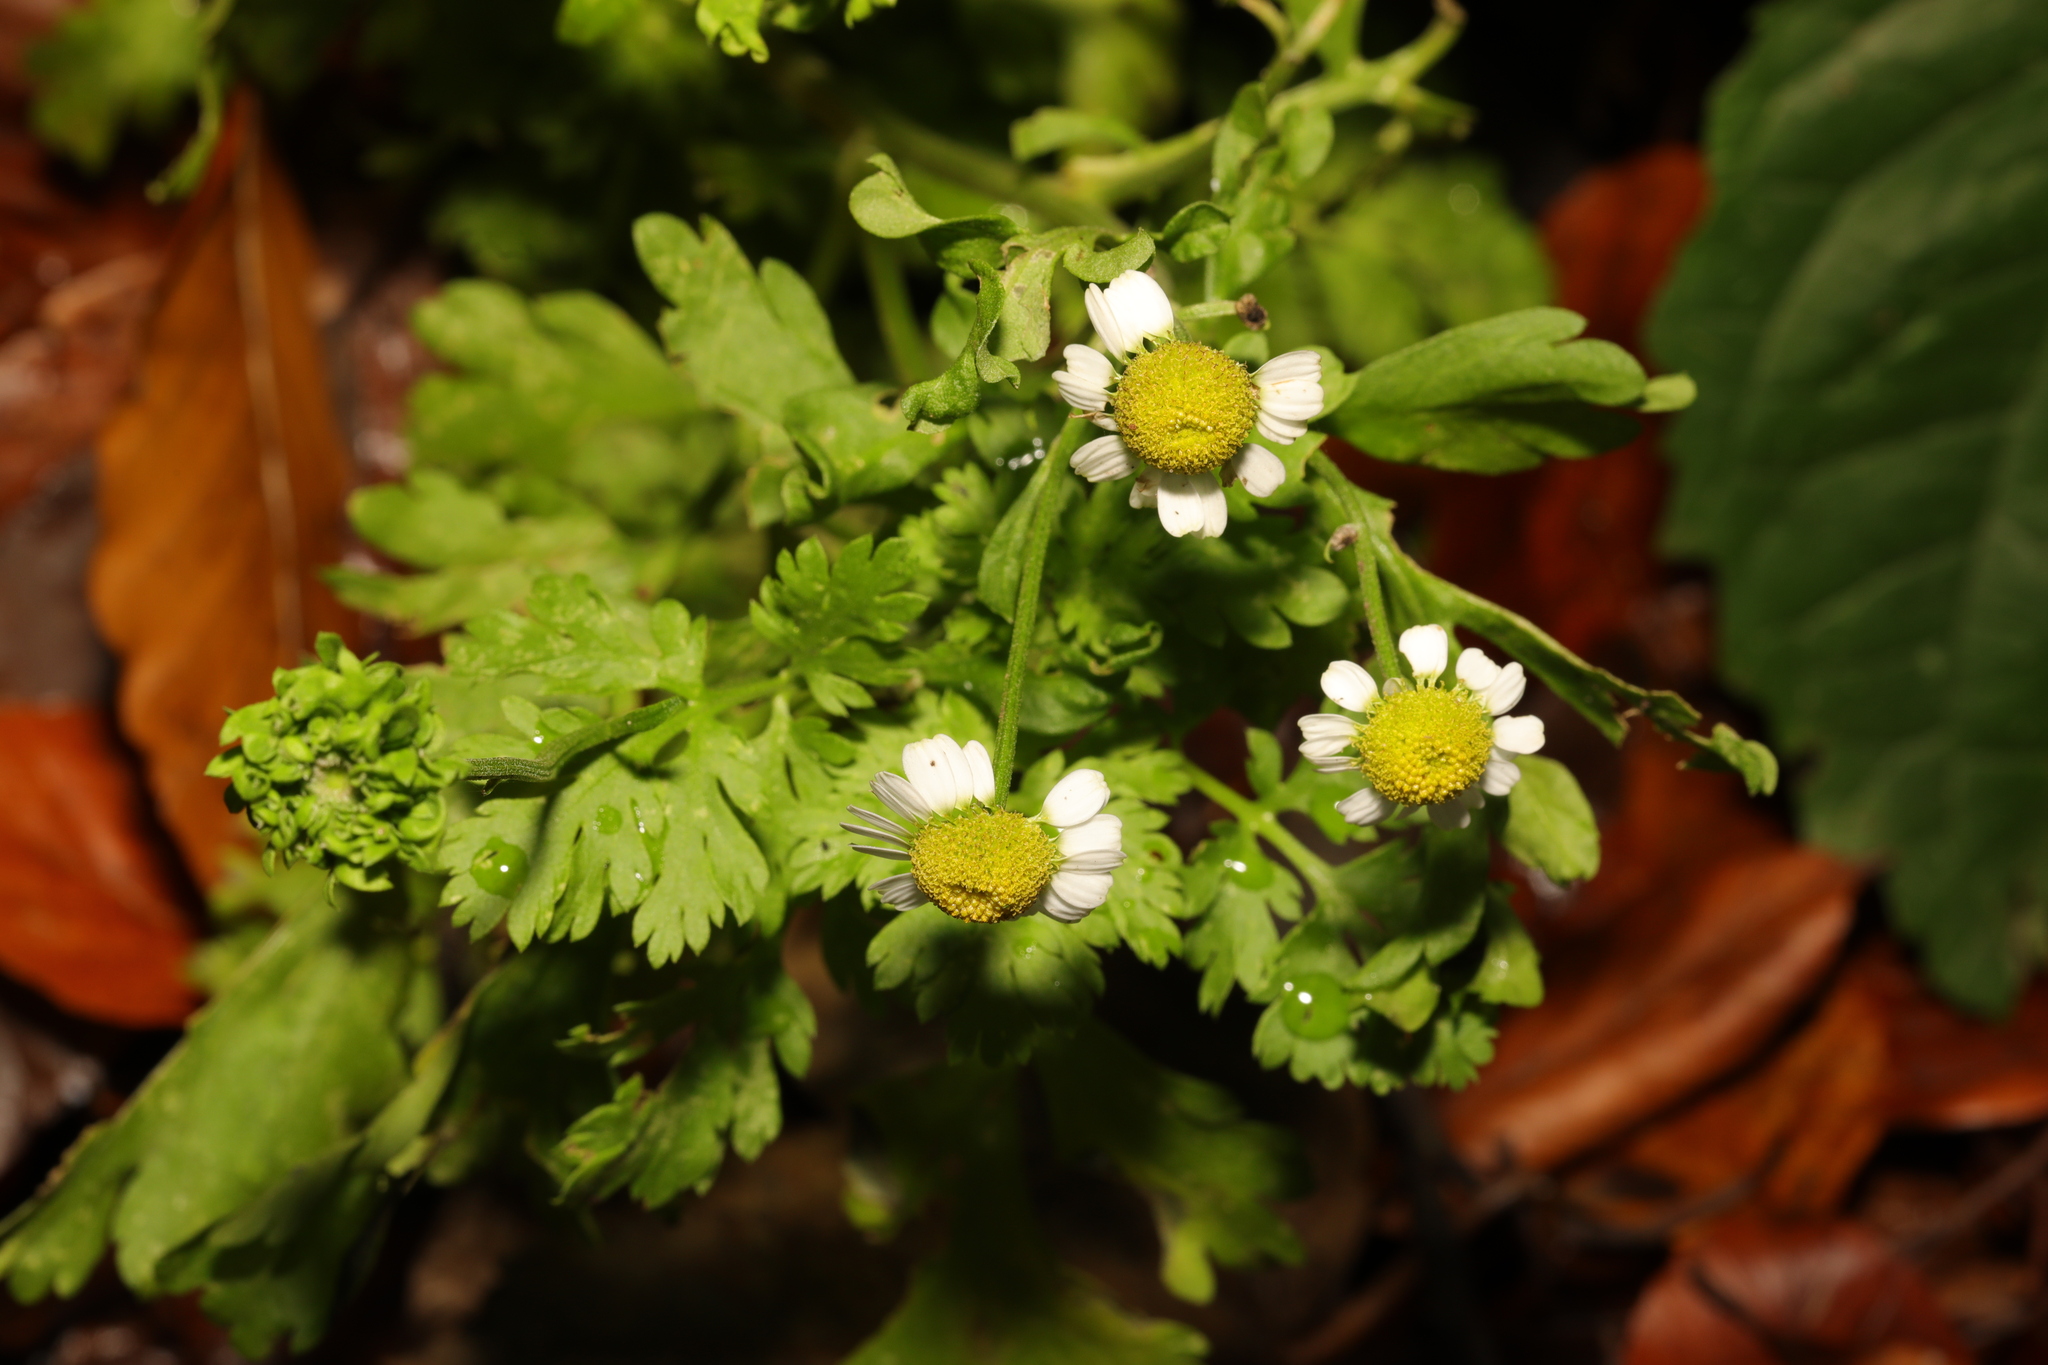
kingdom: Plantae
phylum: Tracheophyta
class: Magnoliopsida
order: Asterales
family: Asteraceae
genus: Tanacetum
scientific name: Tanacetum parthenium
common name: Feverfew
